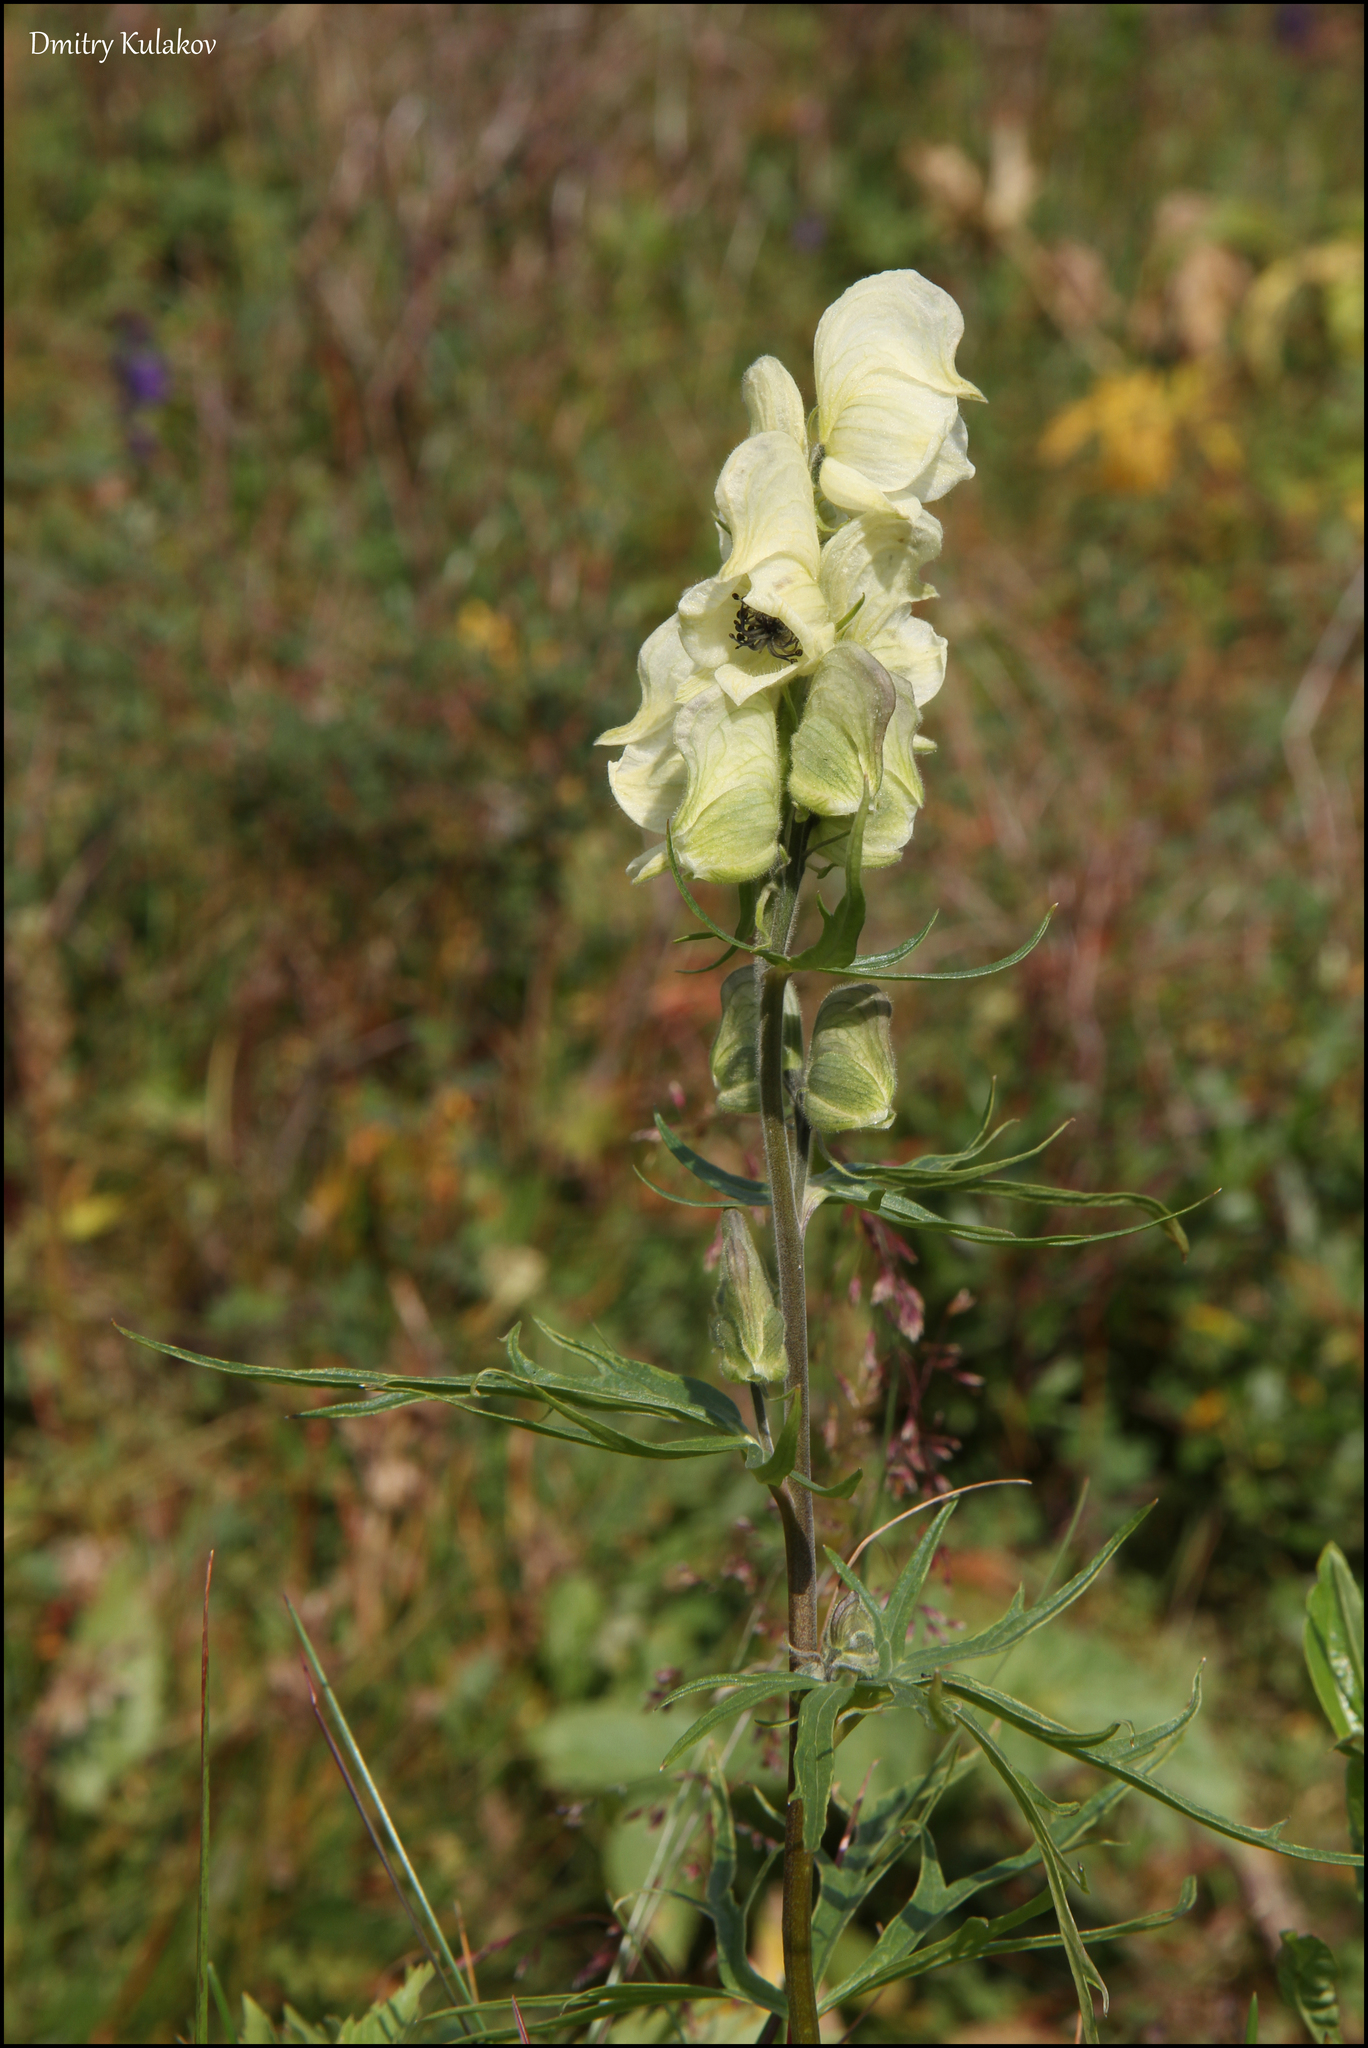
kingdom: Plantae
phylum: Tracheophyta
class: Magnoliopsida
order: Ranunculales
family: Ranunculaceae
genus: Aconitum
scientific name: Aconitum anthora
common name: Yellow monkshood
